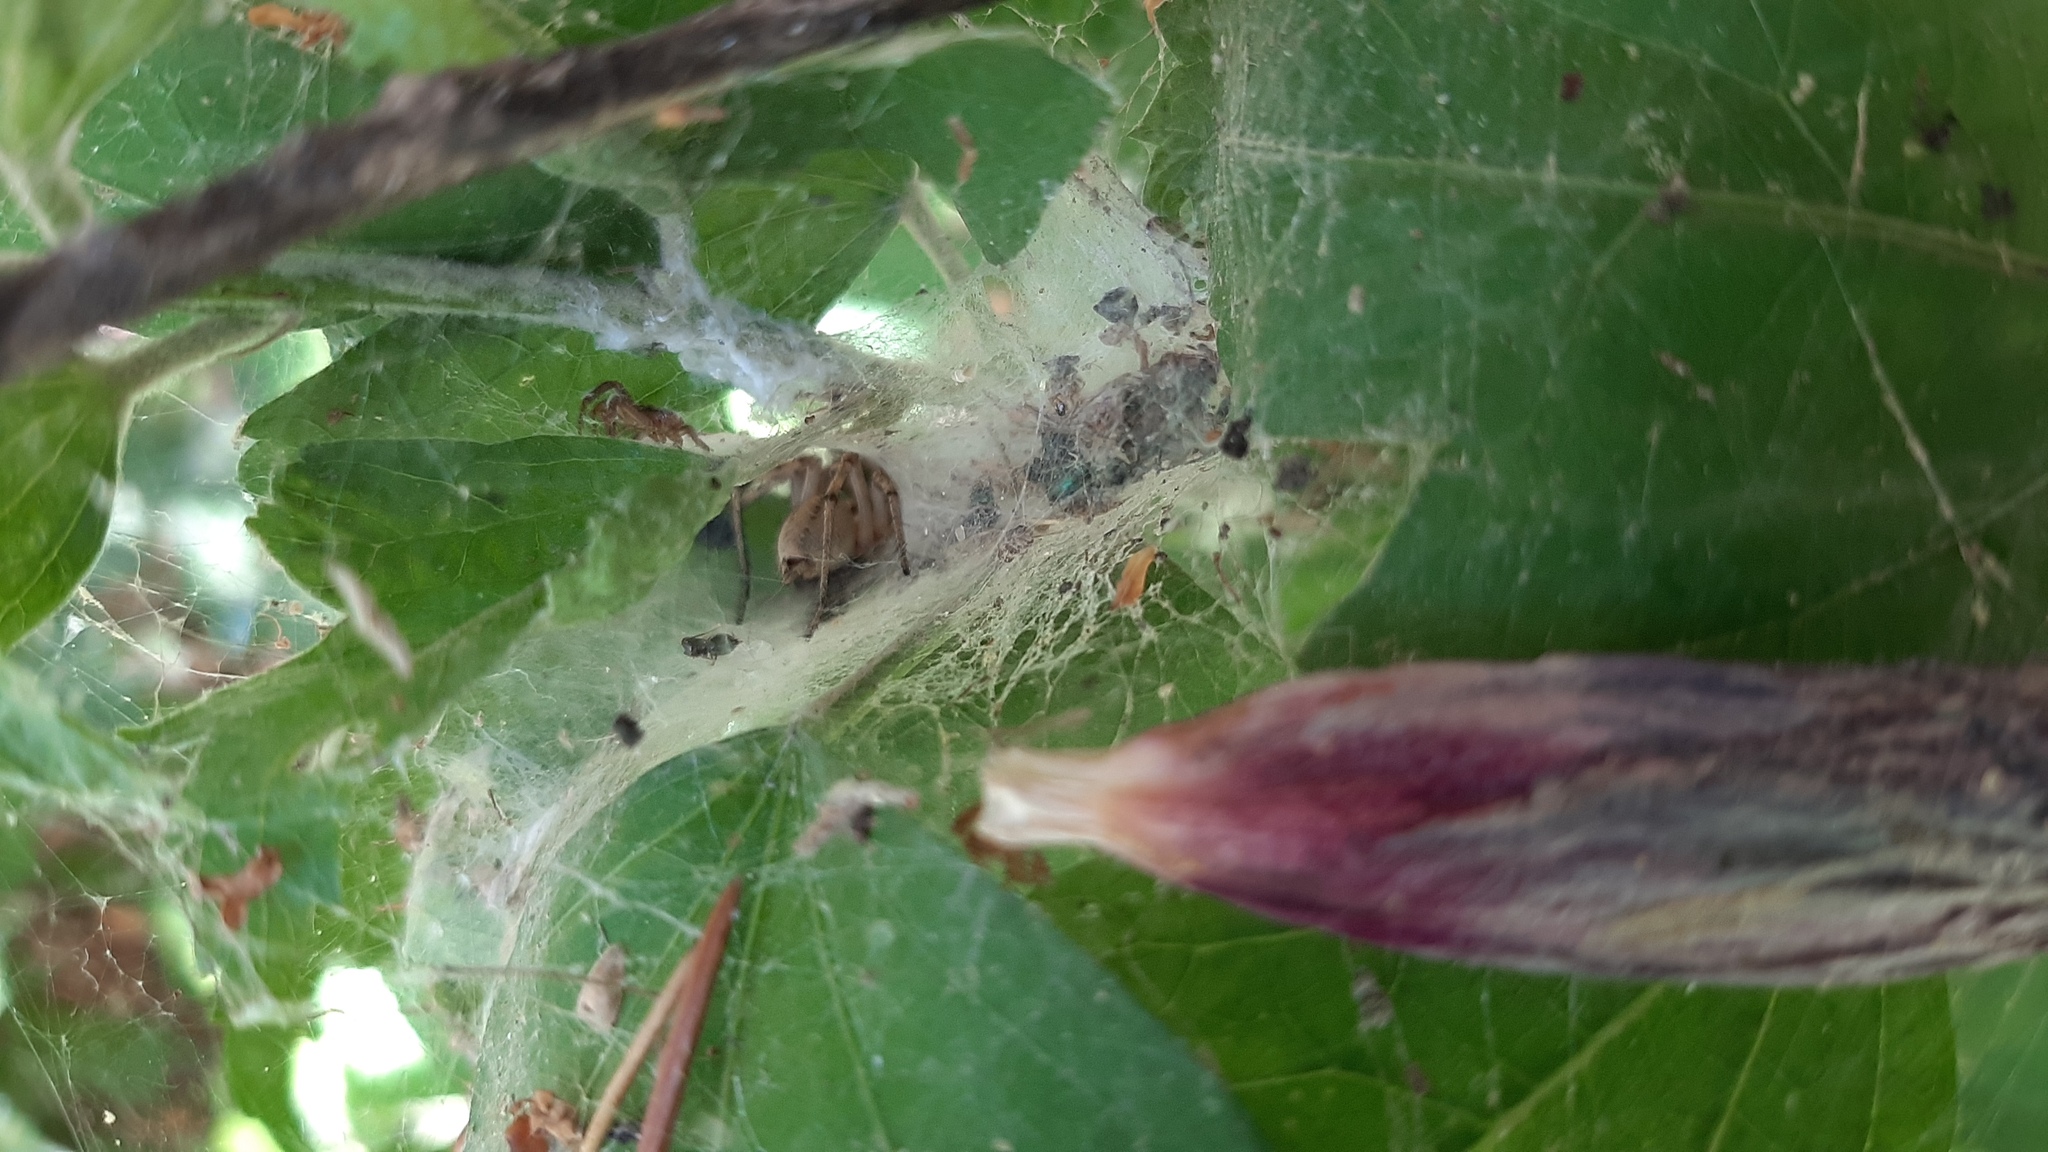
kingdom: Animalia
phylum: Arthropoda
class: Arachnida
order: Araneae
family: Agelenidae
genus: Agelena
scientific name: Agelena labyrinthica
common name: Labyrinth spider
